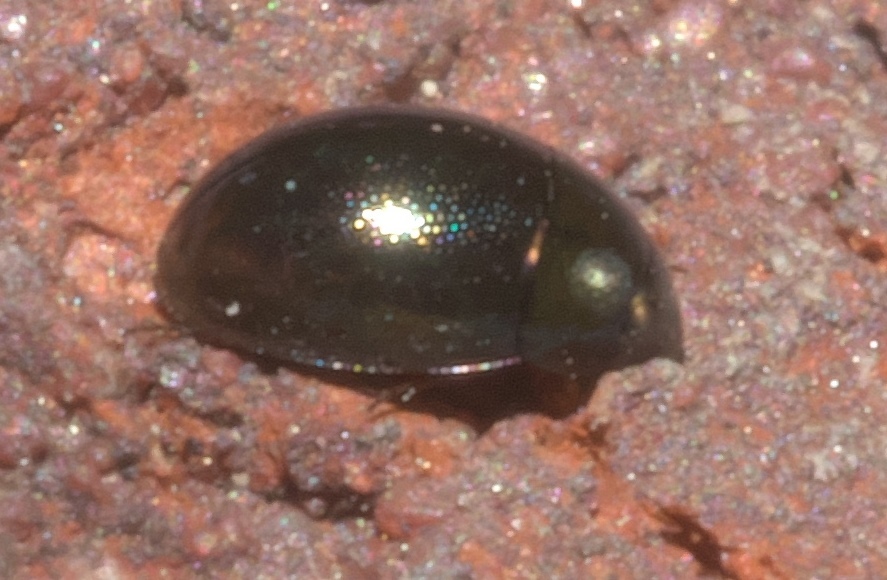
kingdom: Animalia
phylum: Arthropoda
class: Insecta
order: Coleoptera
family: Hydrophilidae
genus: Paracymus
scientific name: Paracymus
